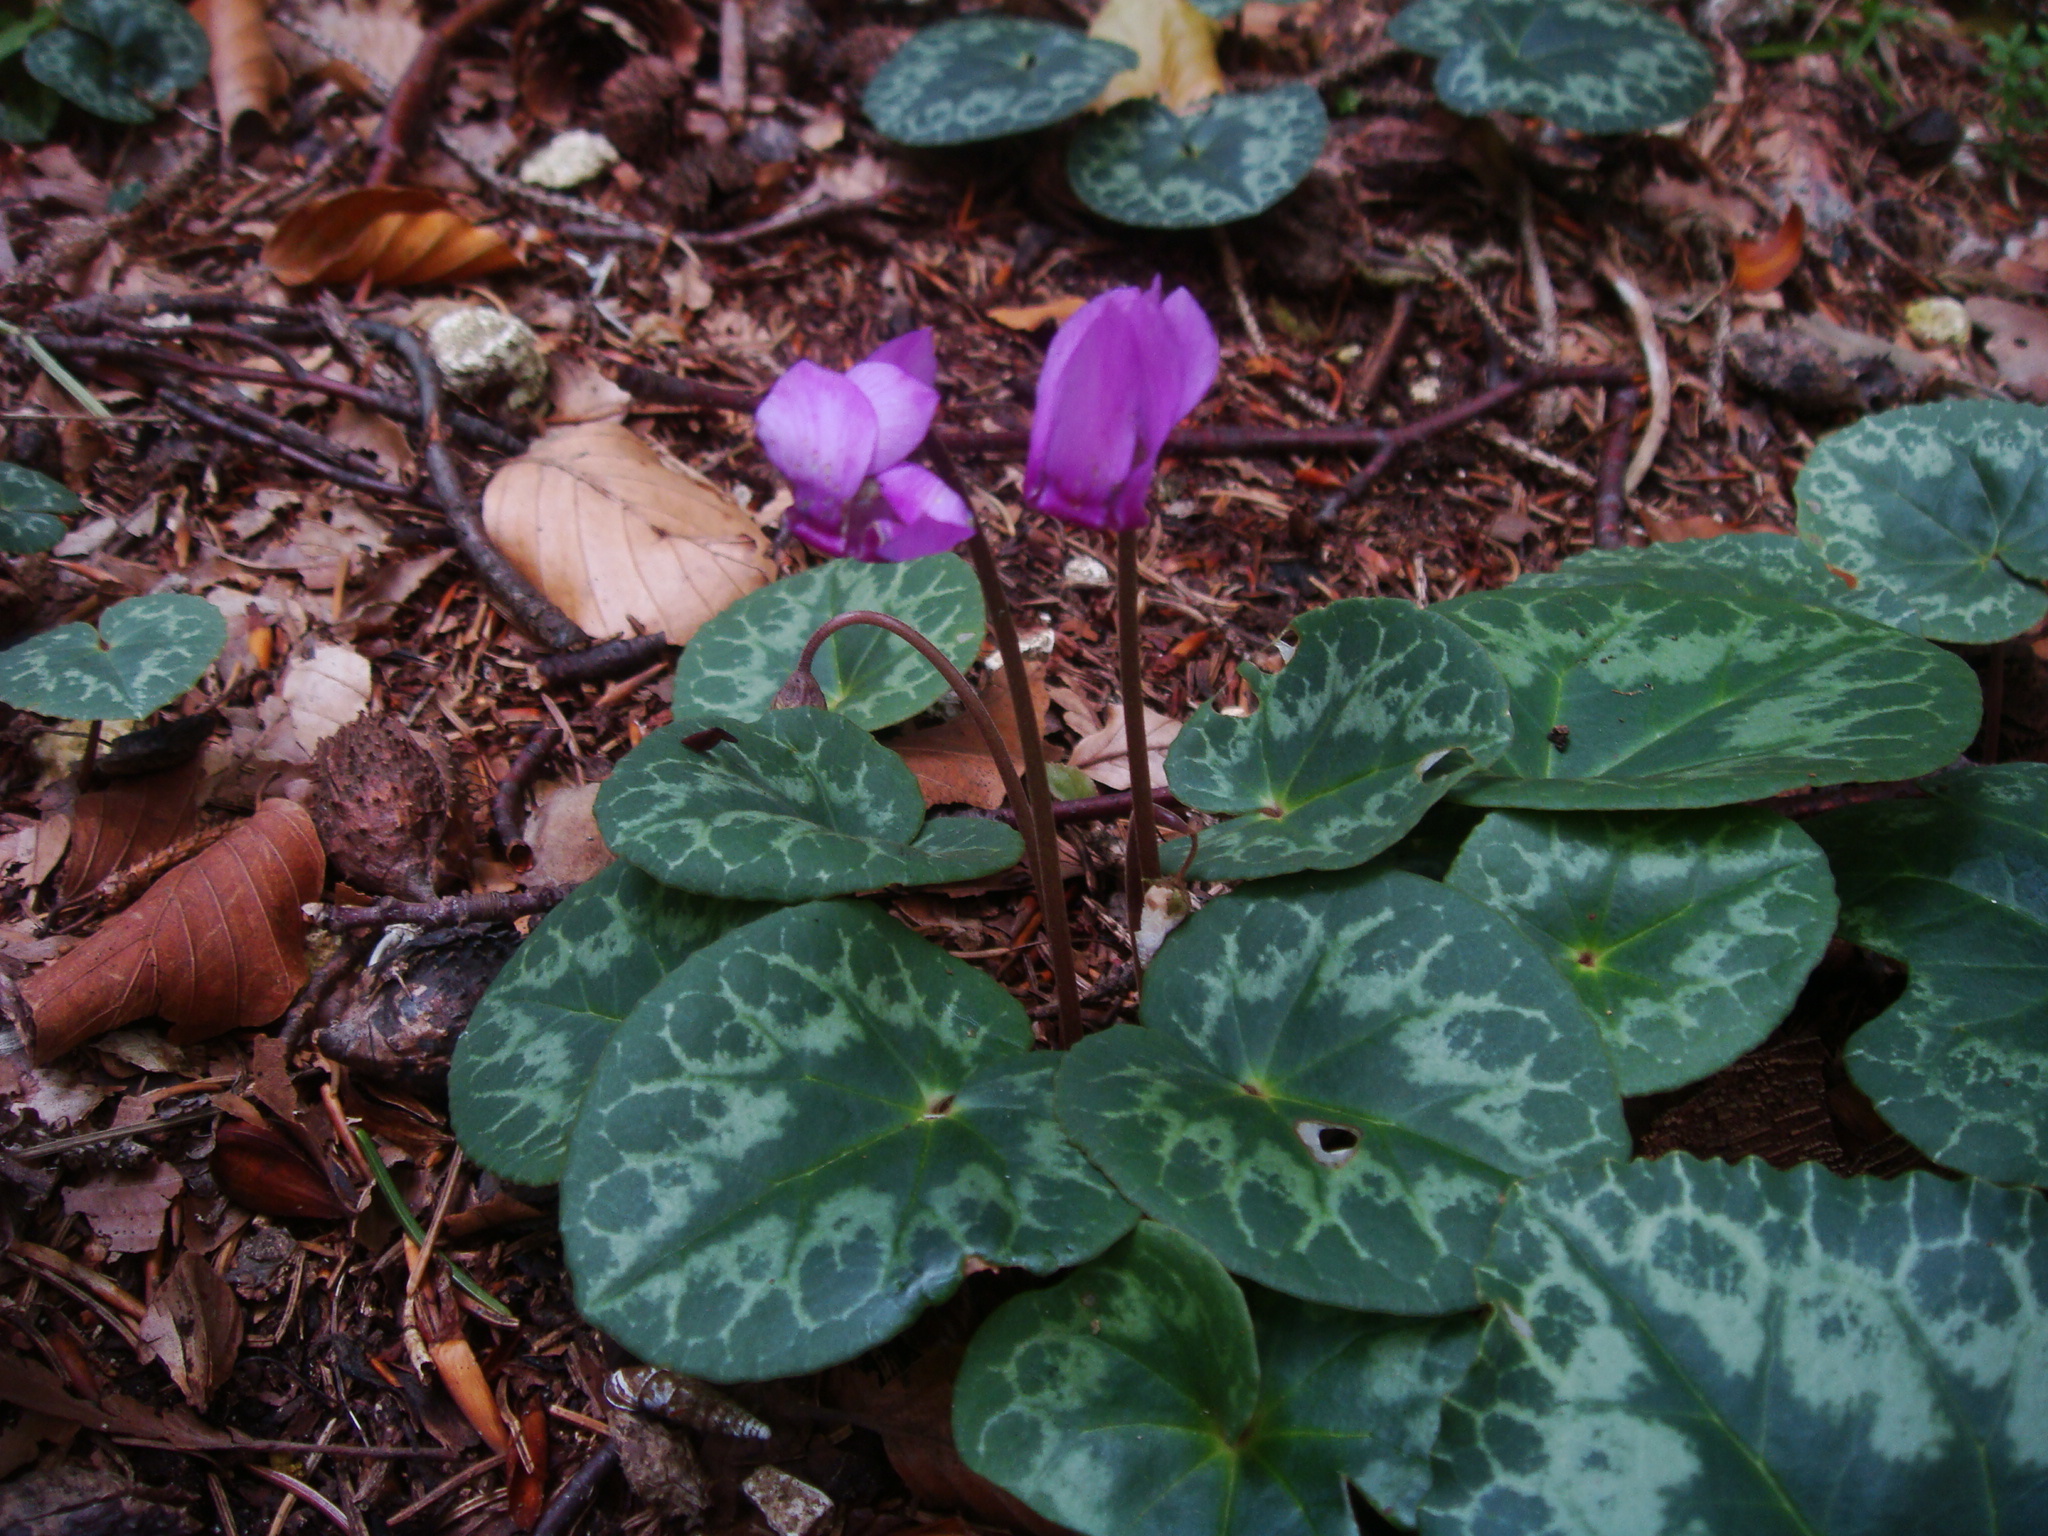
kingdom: Plantae
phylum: Tracheophyta
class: Magnoliopsida
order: Ericales
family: Primulaceae
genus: Cyclamen
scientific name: Cyclamen purpurascens
